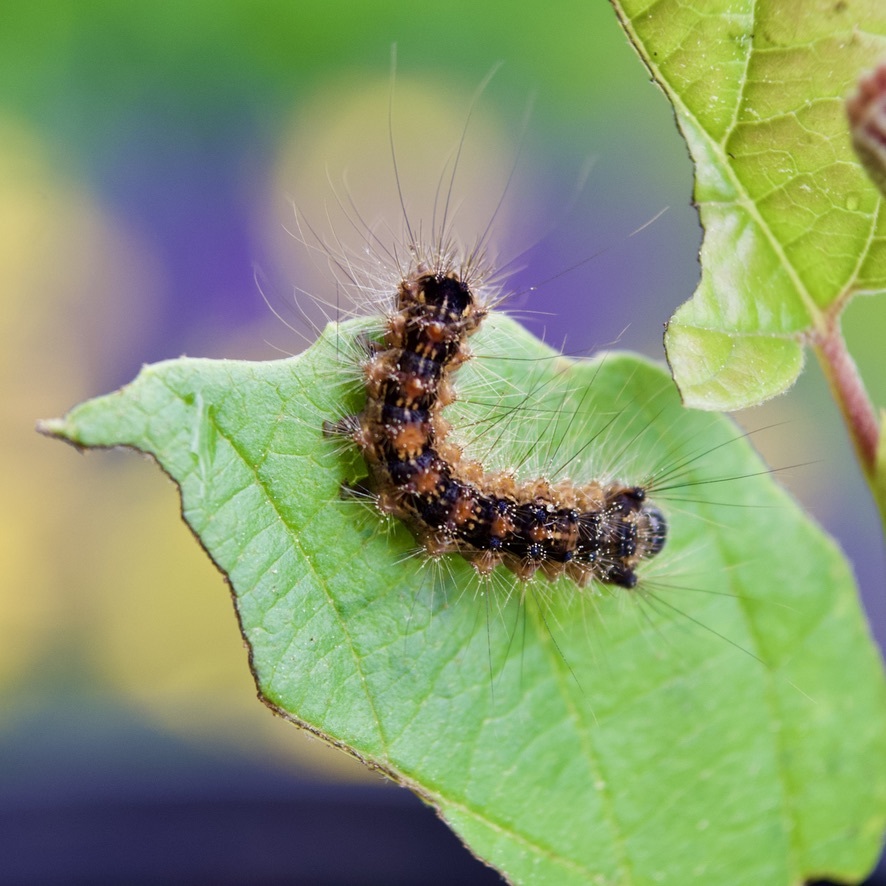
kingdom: Animalia
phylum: Arthropoda
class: Insecta
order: Lepidoptera
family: Erebidae
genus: Lymantria
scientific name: Lymantria dispar
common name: Gypsy moth
